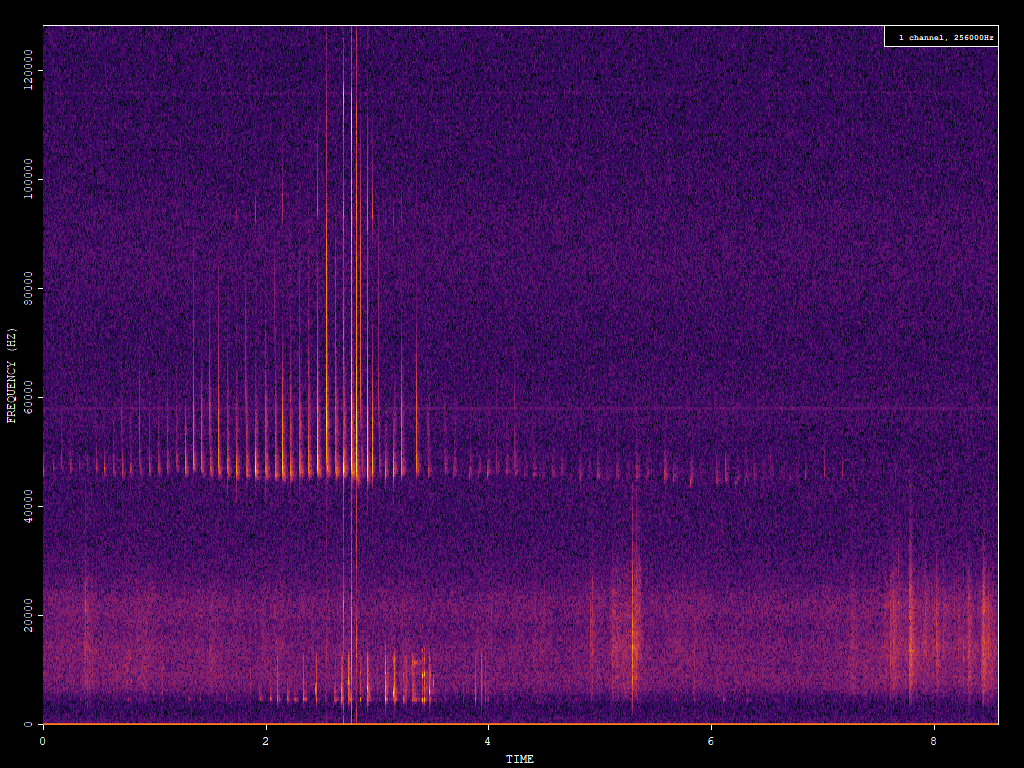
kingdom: Animalia
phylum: Chordata
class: Mammalia
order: Chiroptera
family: Vespertilionidae
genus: Pipistrellus
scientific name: Pipistrellus pipistrellus
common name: Common pipistrelle
